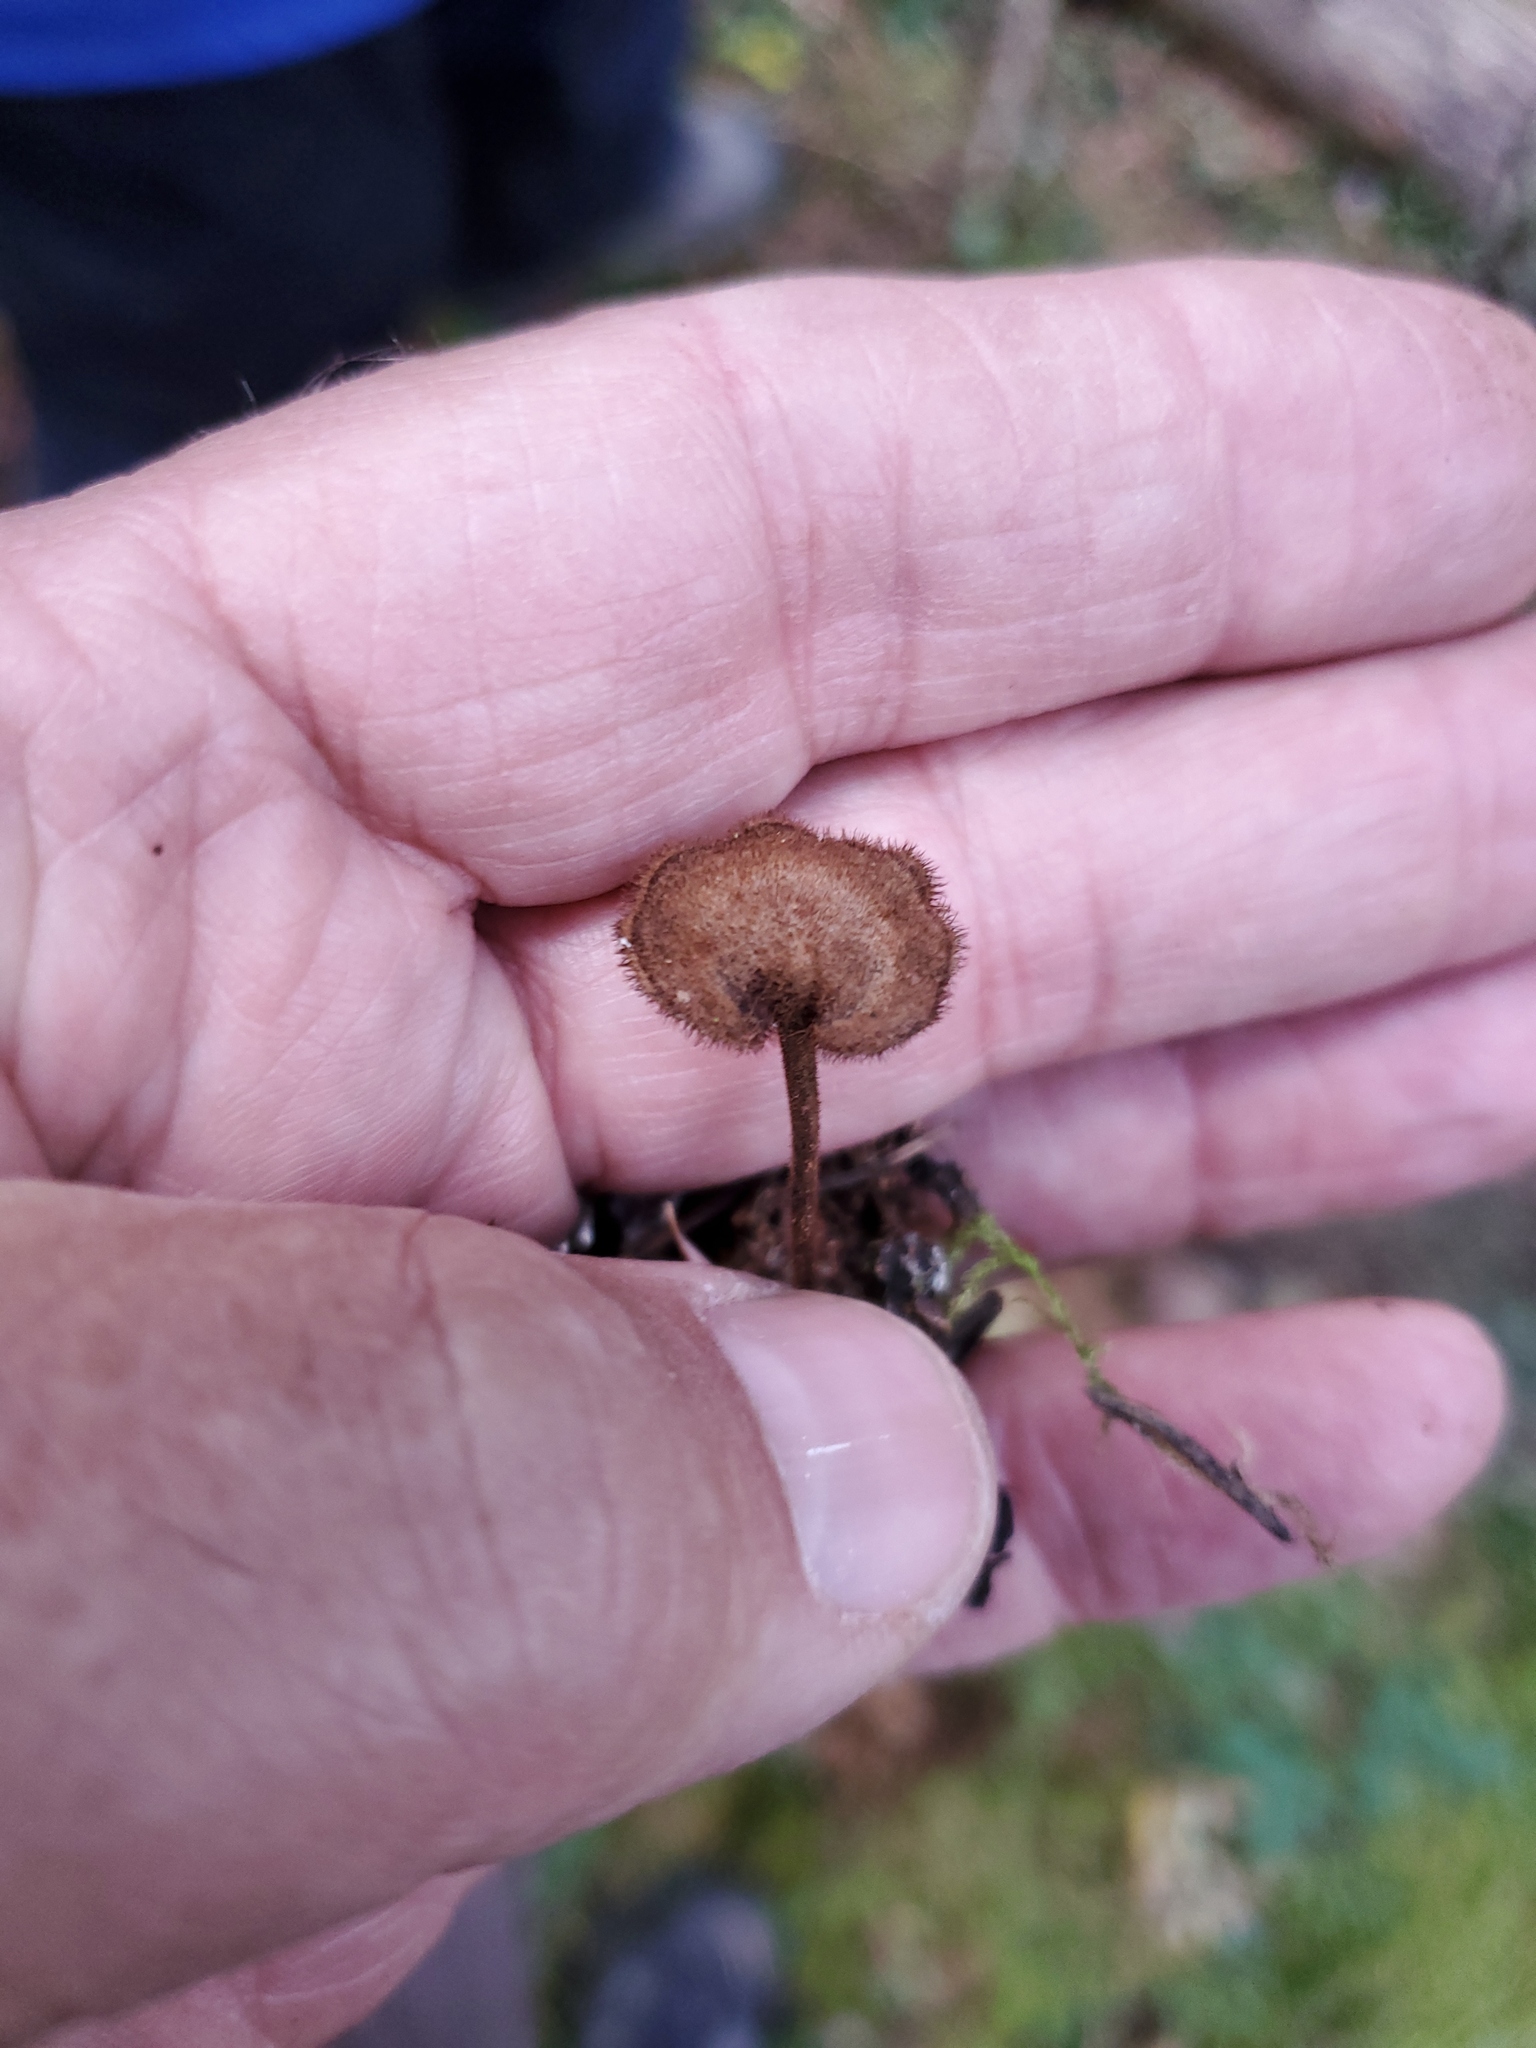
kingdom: Fungi
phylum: Basidiomycota
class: Agaricomycetes
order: Russulales
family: Auriscalpiaceae
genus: Auriscalpium
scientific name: Auriscalpium vulgare
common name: Earpick fungus
